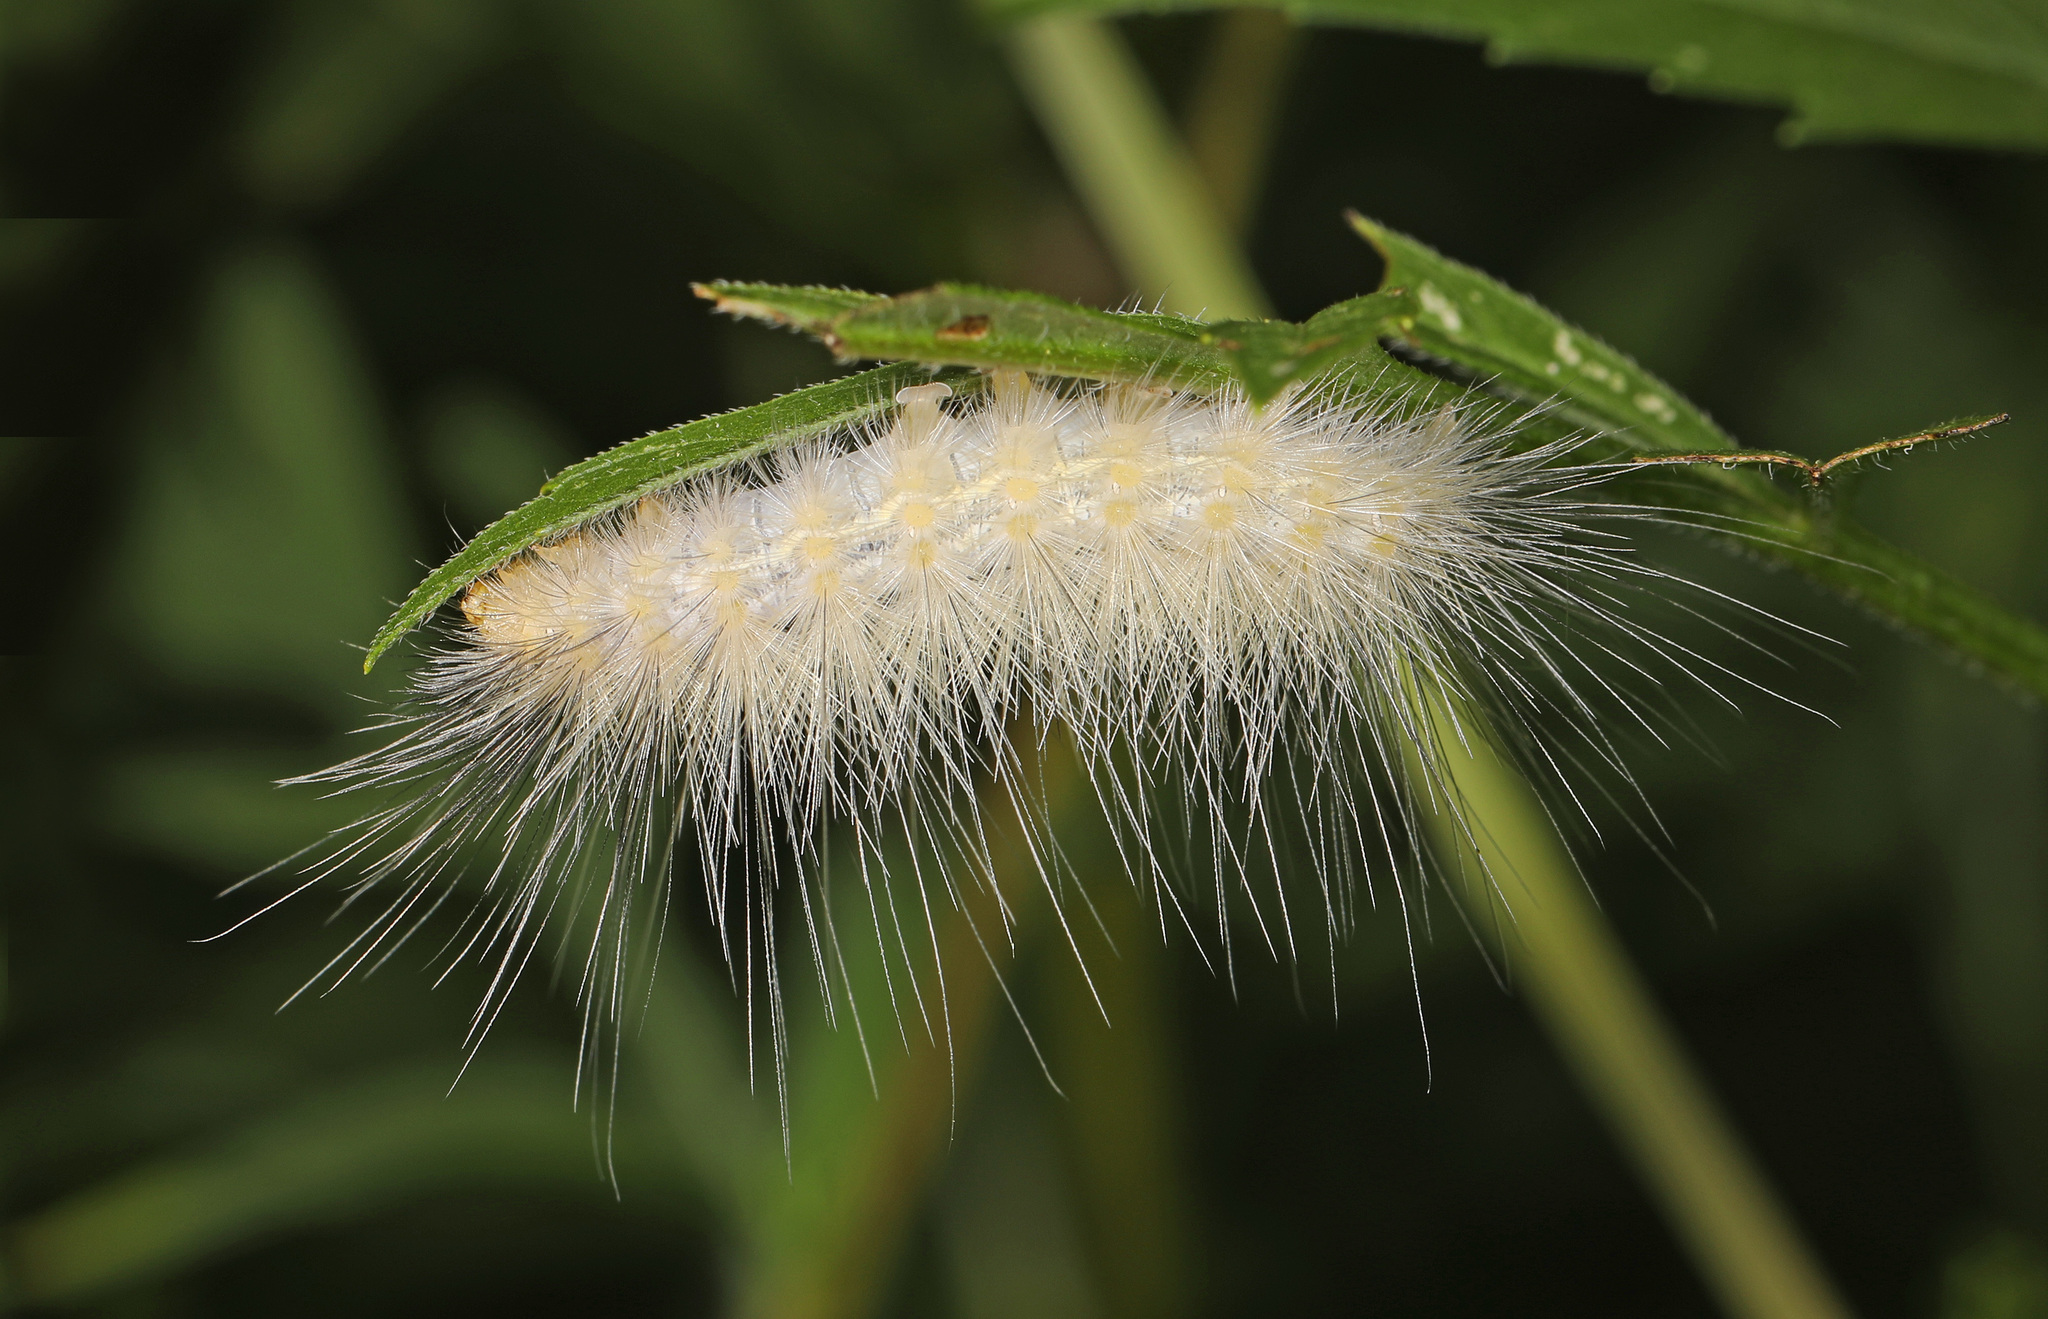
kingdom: Animalia
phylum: Arthropoda
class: Insecta
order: Lepidoptera
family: Erebidae
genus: Spilosoma
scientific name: Spilosoma virginica
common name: Virginia tiger moth
